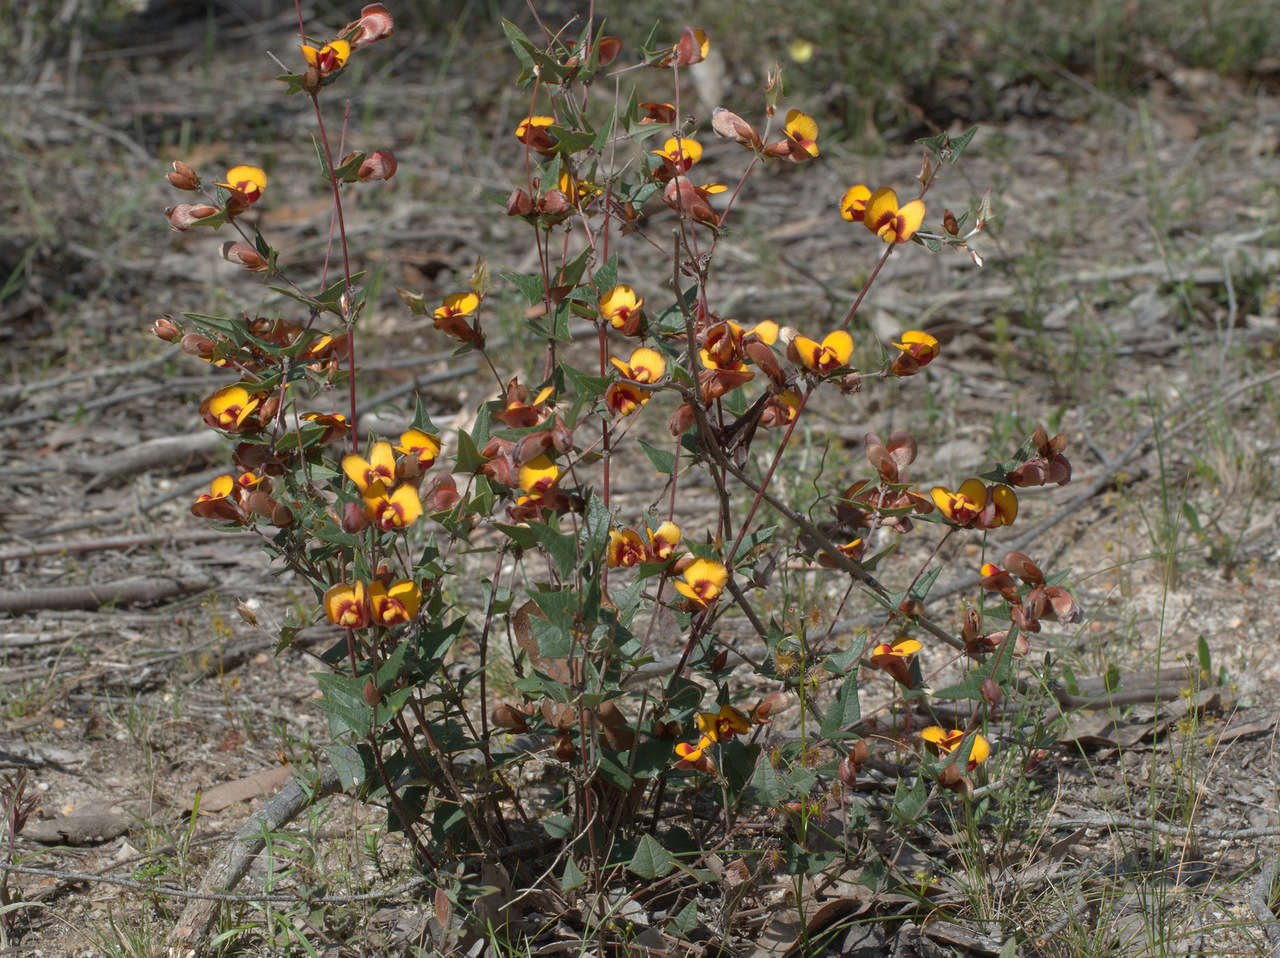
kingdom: Plantae
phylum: Tracheophyta
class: Magnoliopsida
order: Fabales
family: Fabaceae
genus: Platylobium
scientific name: Platylobium obtusangulum
